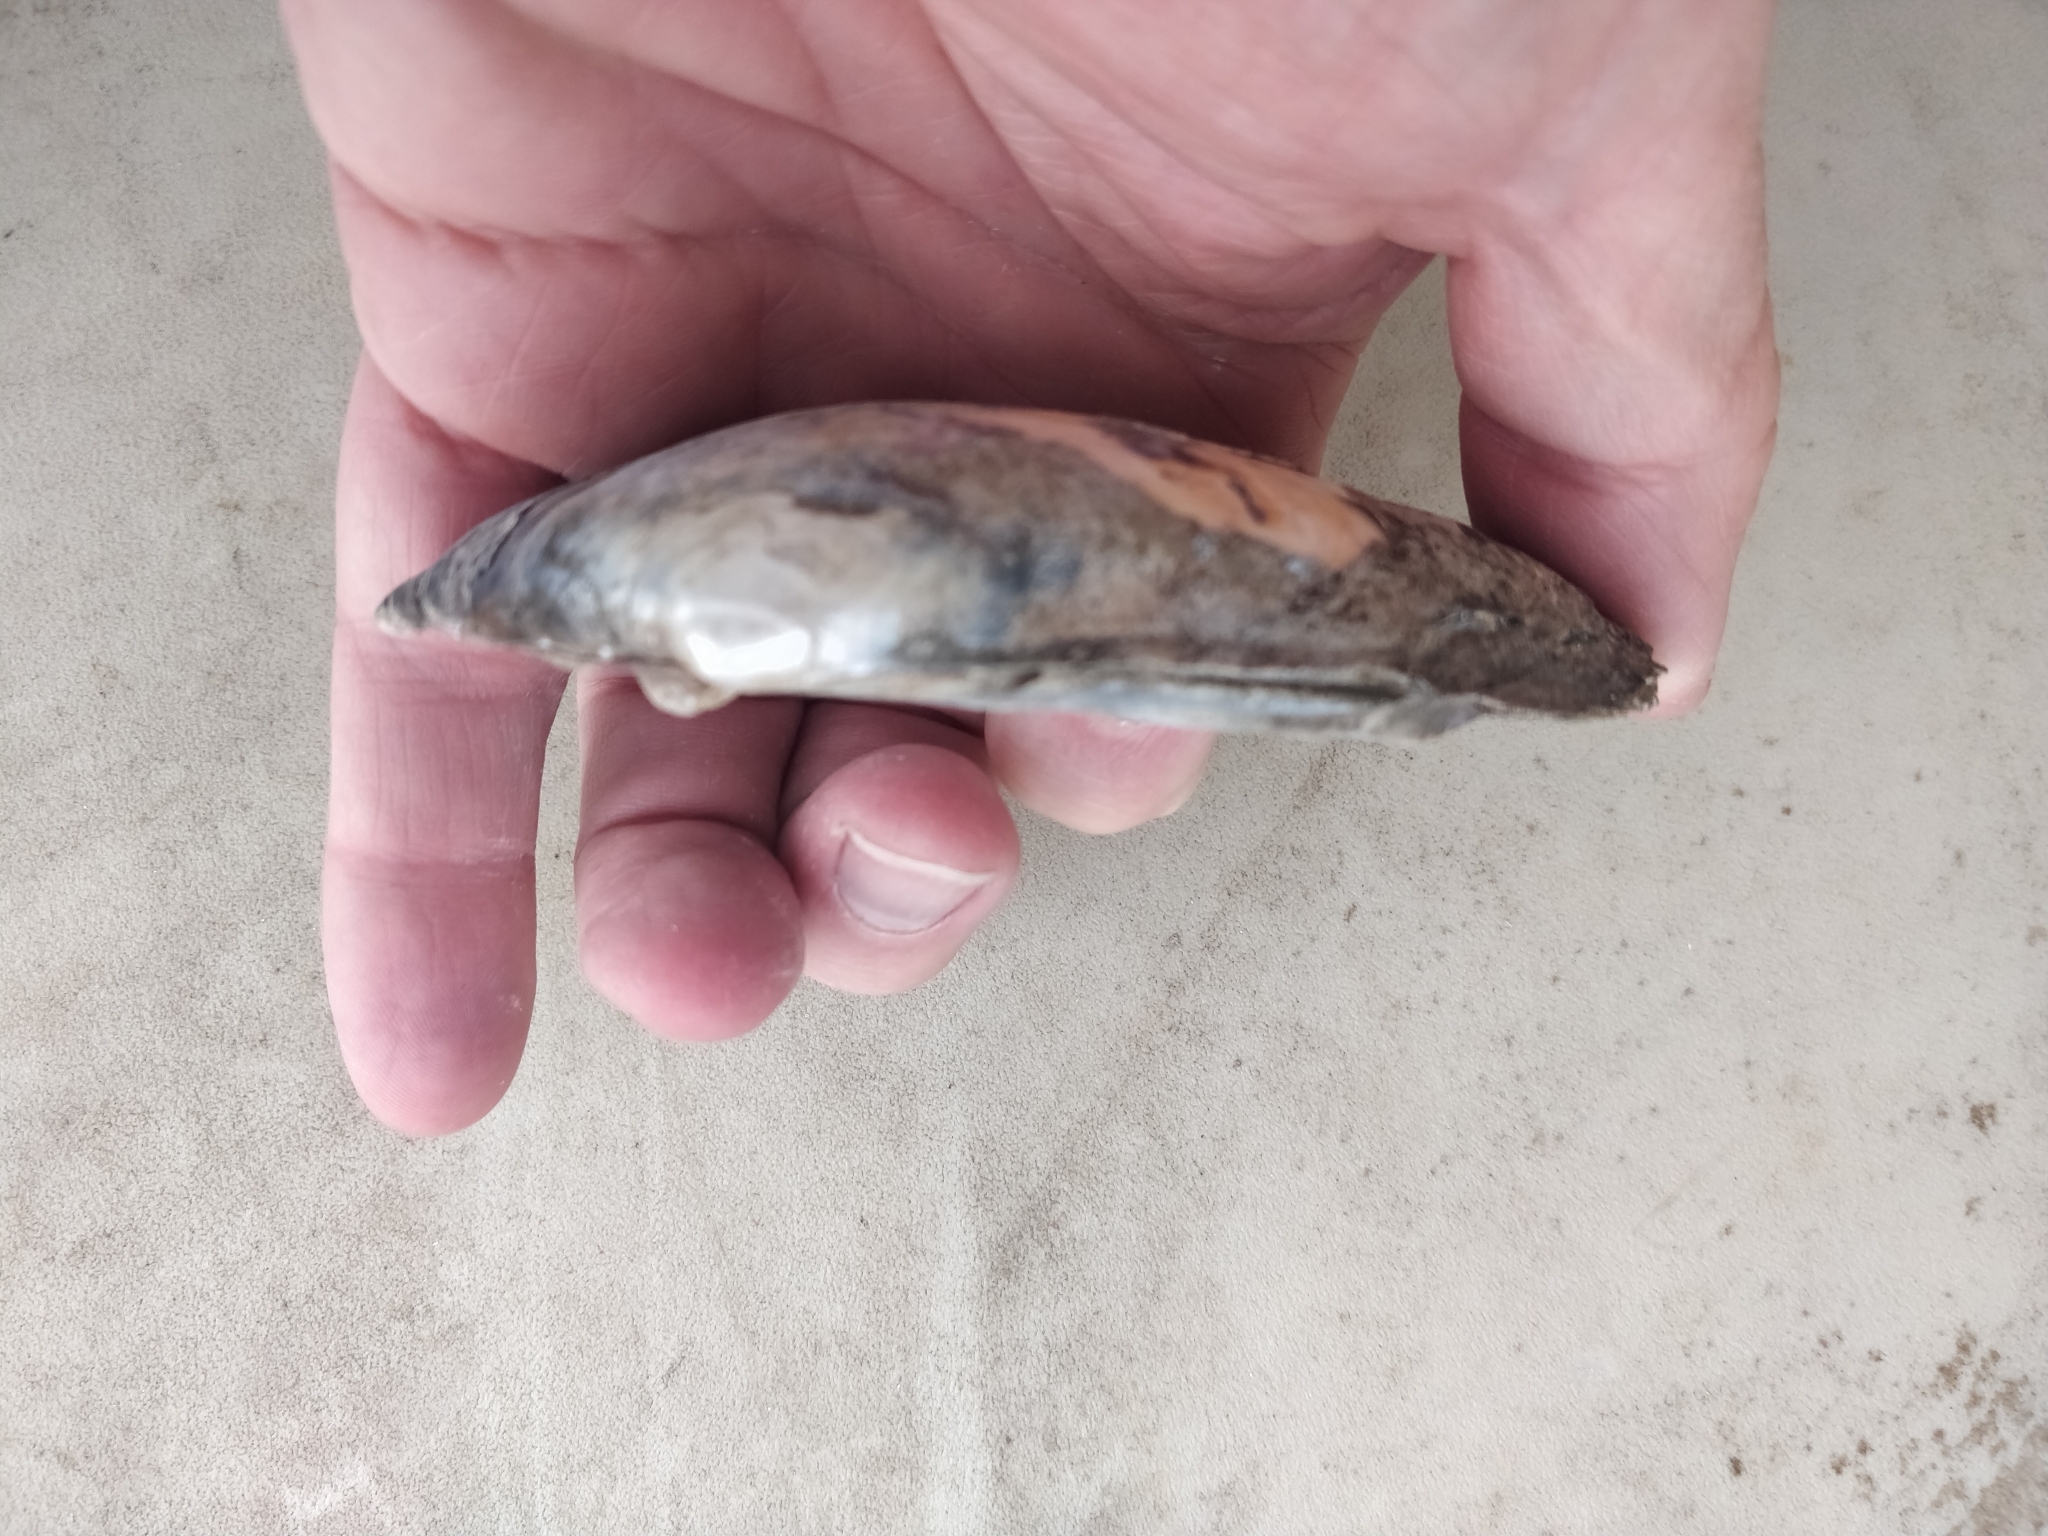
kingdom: Animalia
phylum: Mollusca
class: Bivalvia
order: Unionida
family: Unionidae
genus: Lampsilis
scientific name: Lampsilis cardium
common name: Plain pocketbook
